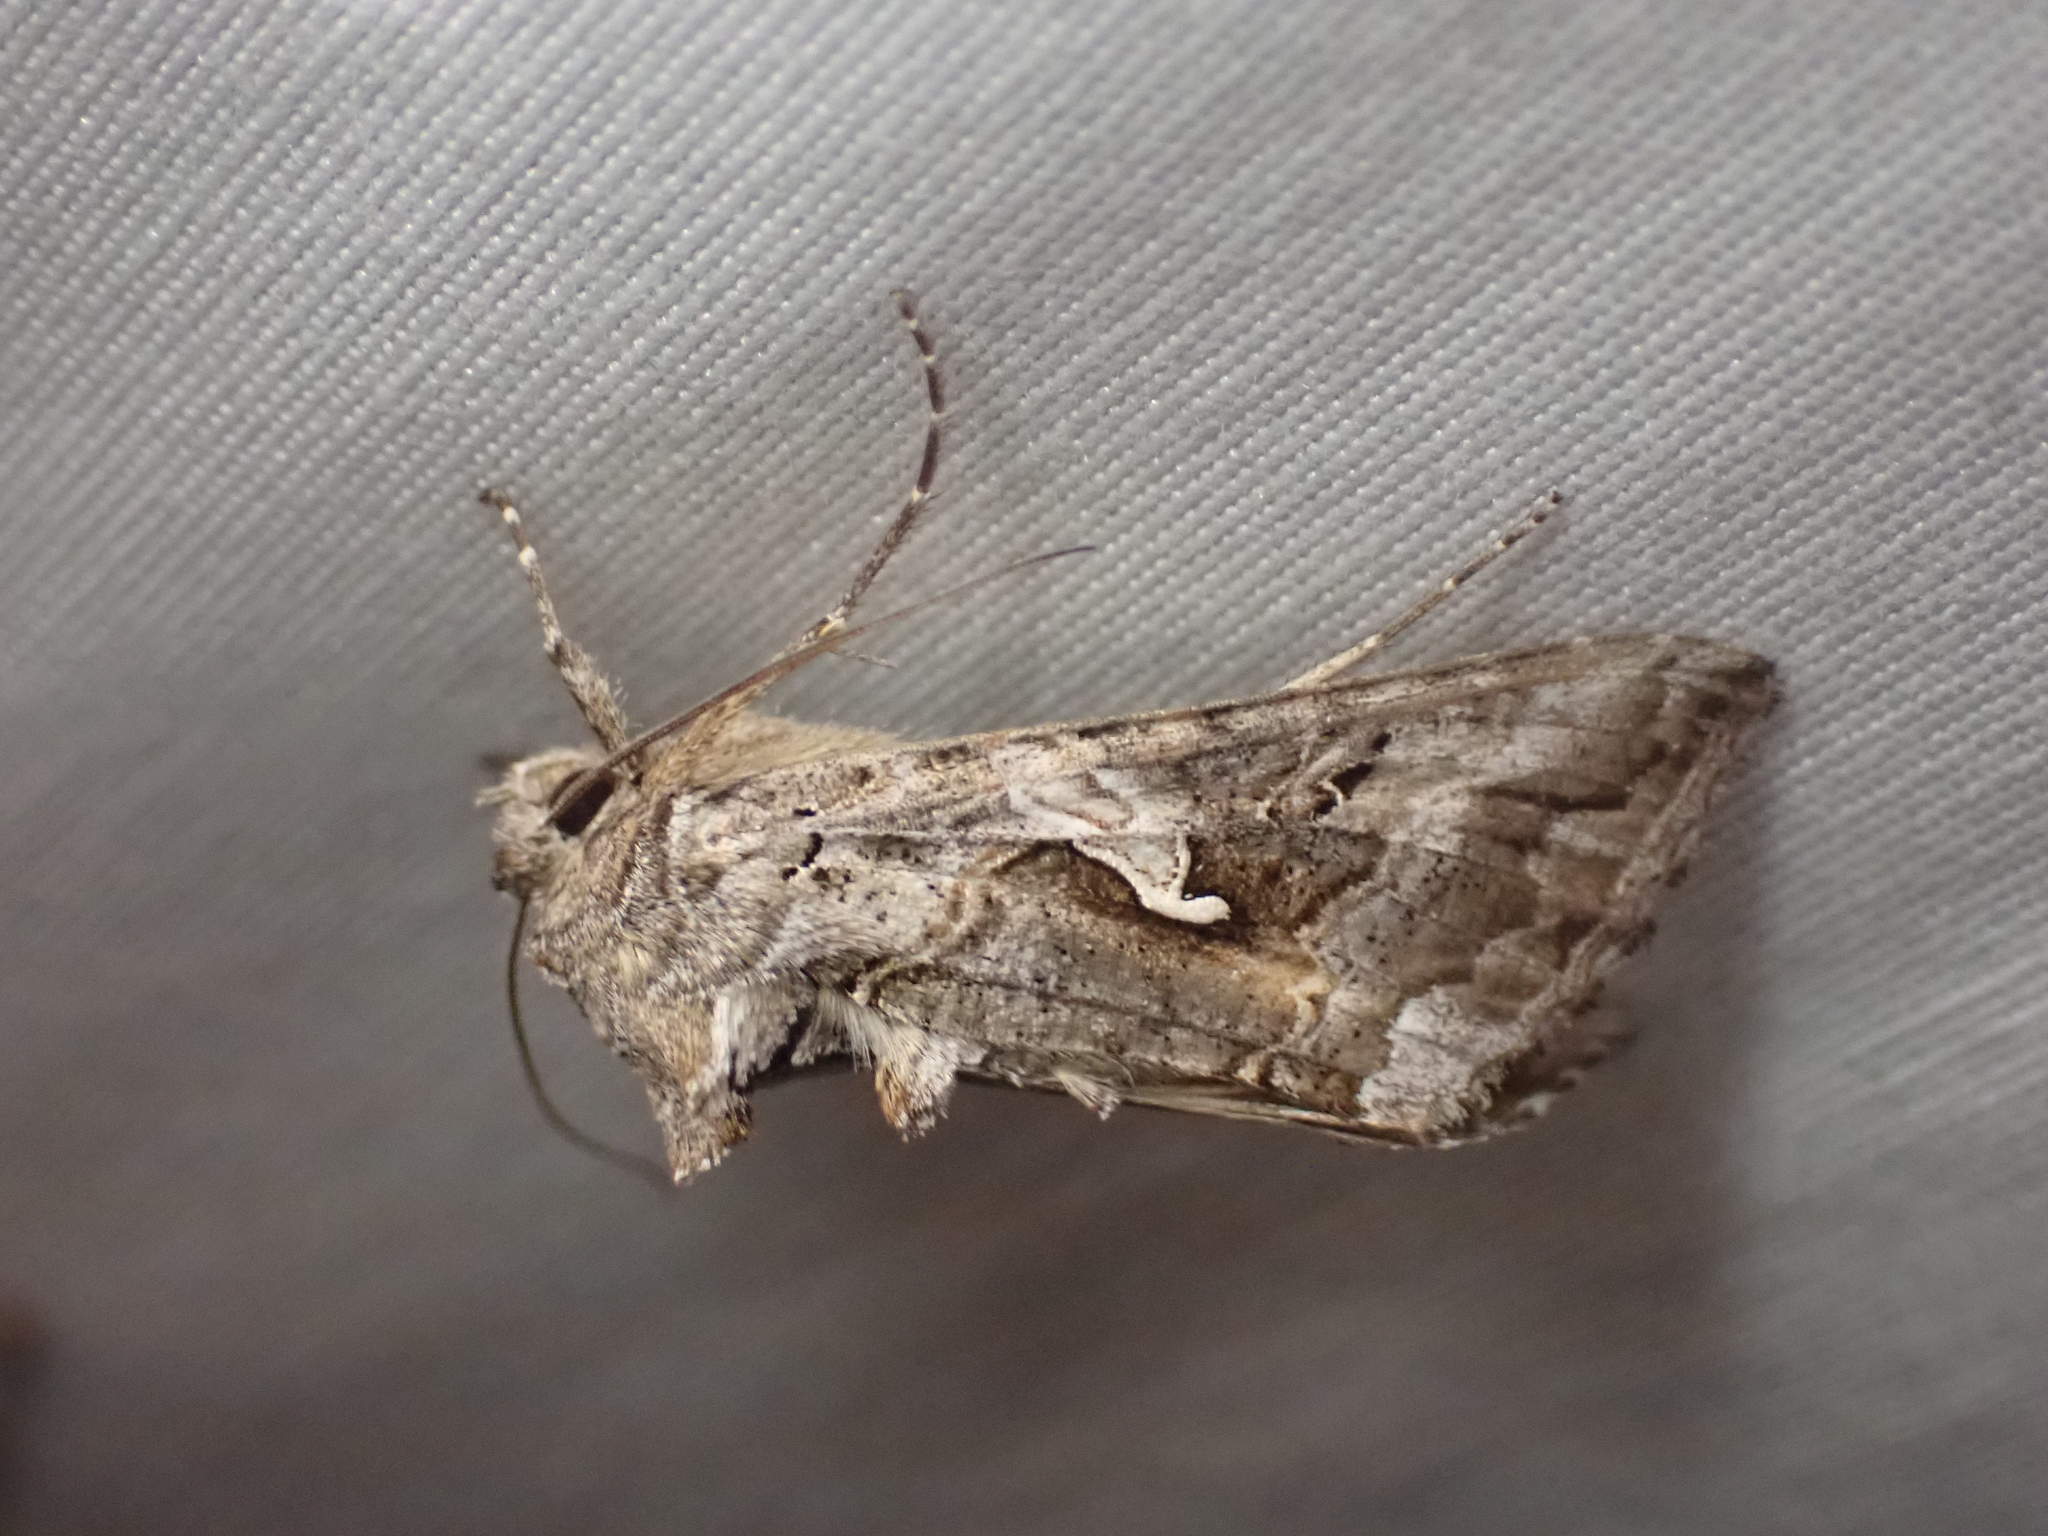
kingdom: Animalia
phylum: Arthropoda
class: Insecta
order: Lepidoptera
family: Noctuidae
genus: Autographa
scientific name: Autographa californica
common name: Alfalfa looper
